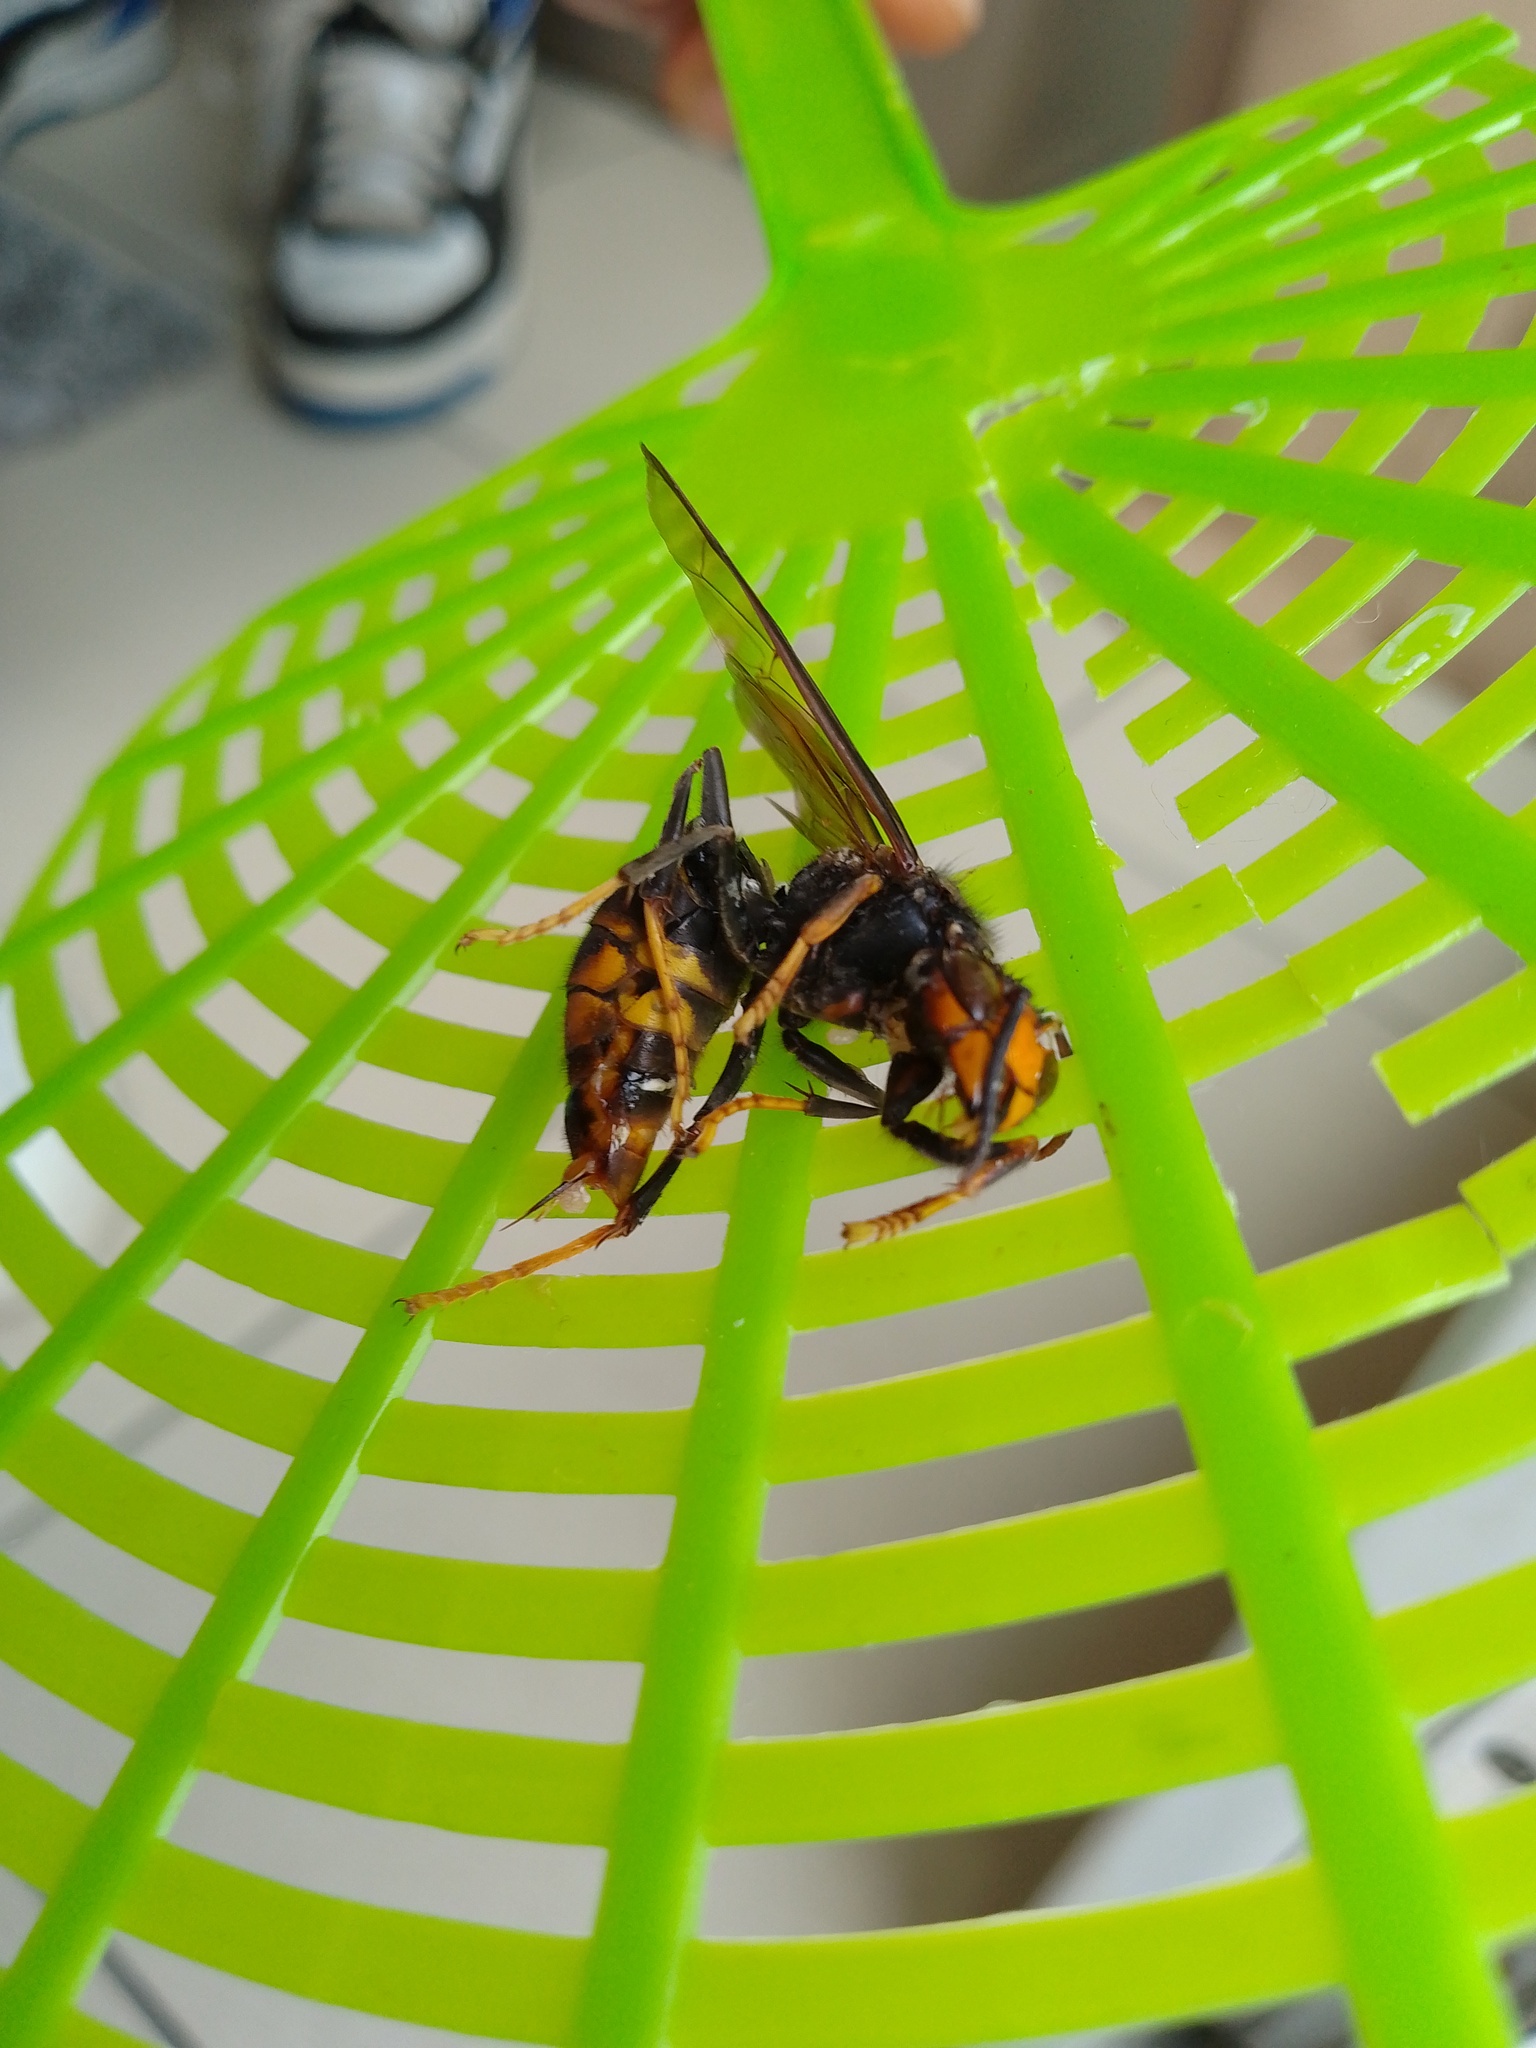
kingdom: Animalia
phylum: Arthropoda
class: Insecta
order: Hymenoptera
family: Vespidae
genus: Vespa
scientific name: Vespa velutina
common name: Asian hornet
